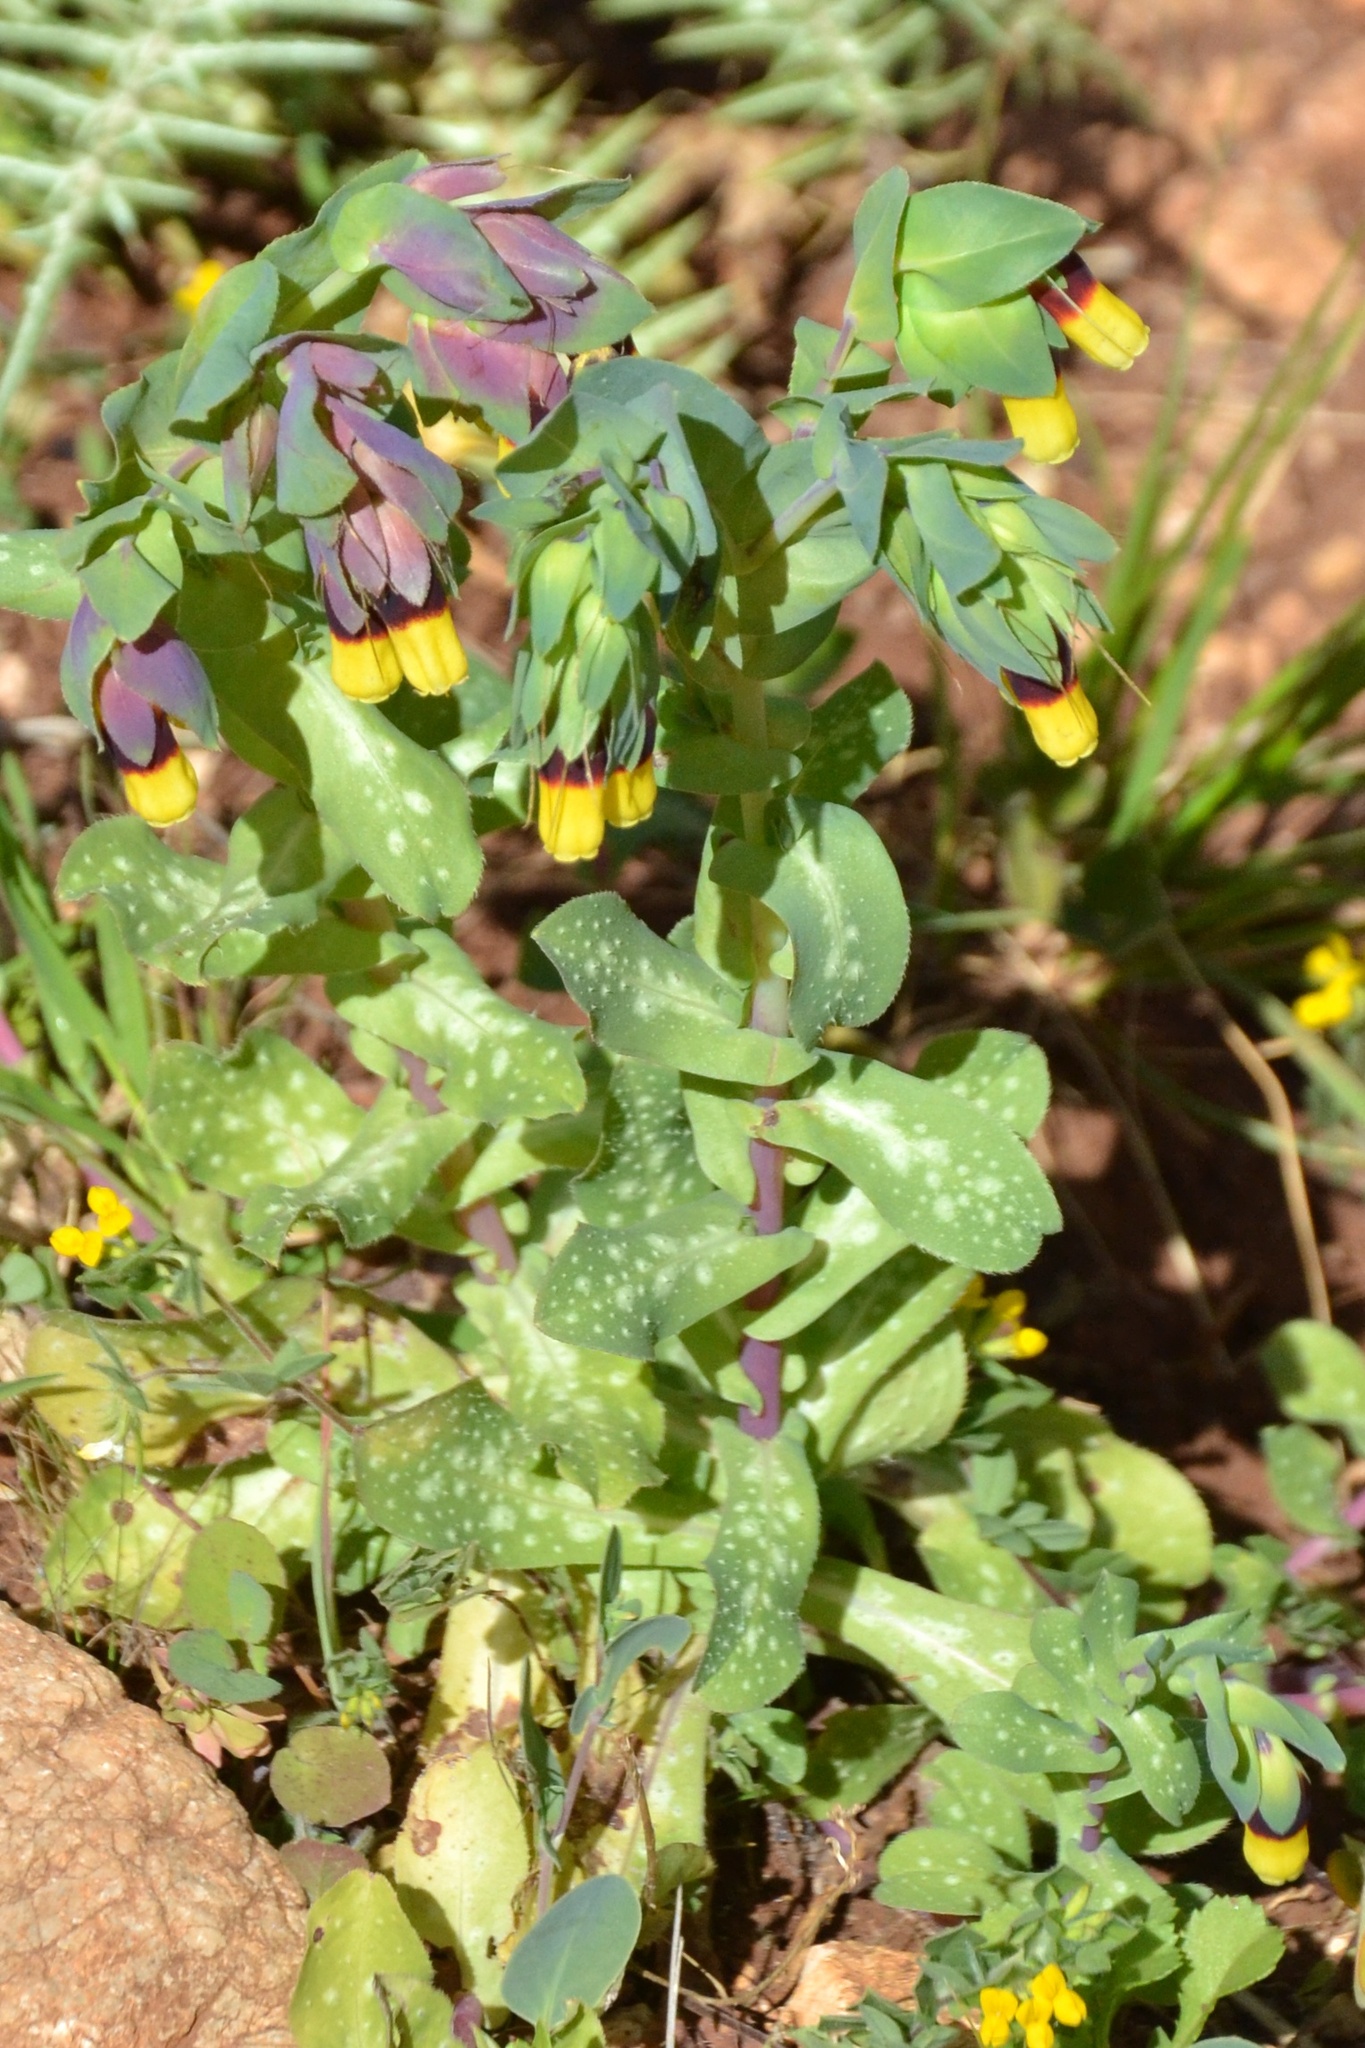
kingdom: Plantae
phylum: Tracheophyta
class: Magnoliopsida
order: Boraginales
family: Boraginaceae
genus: Cerinthe
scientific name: Cerinthe major
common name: Greater honeywort
